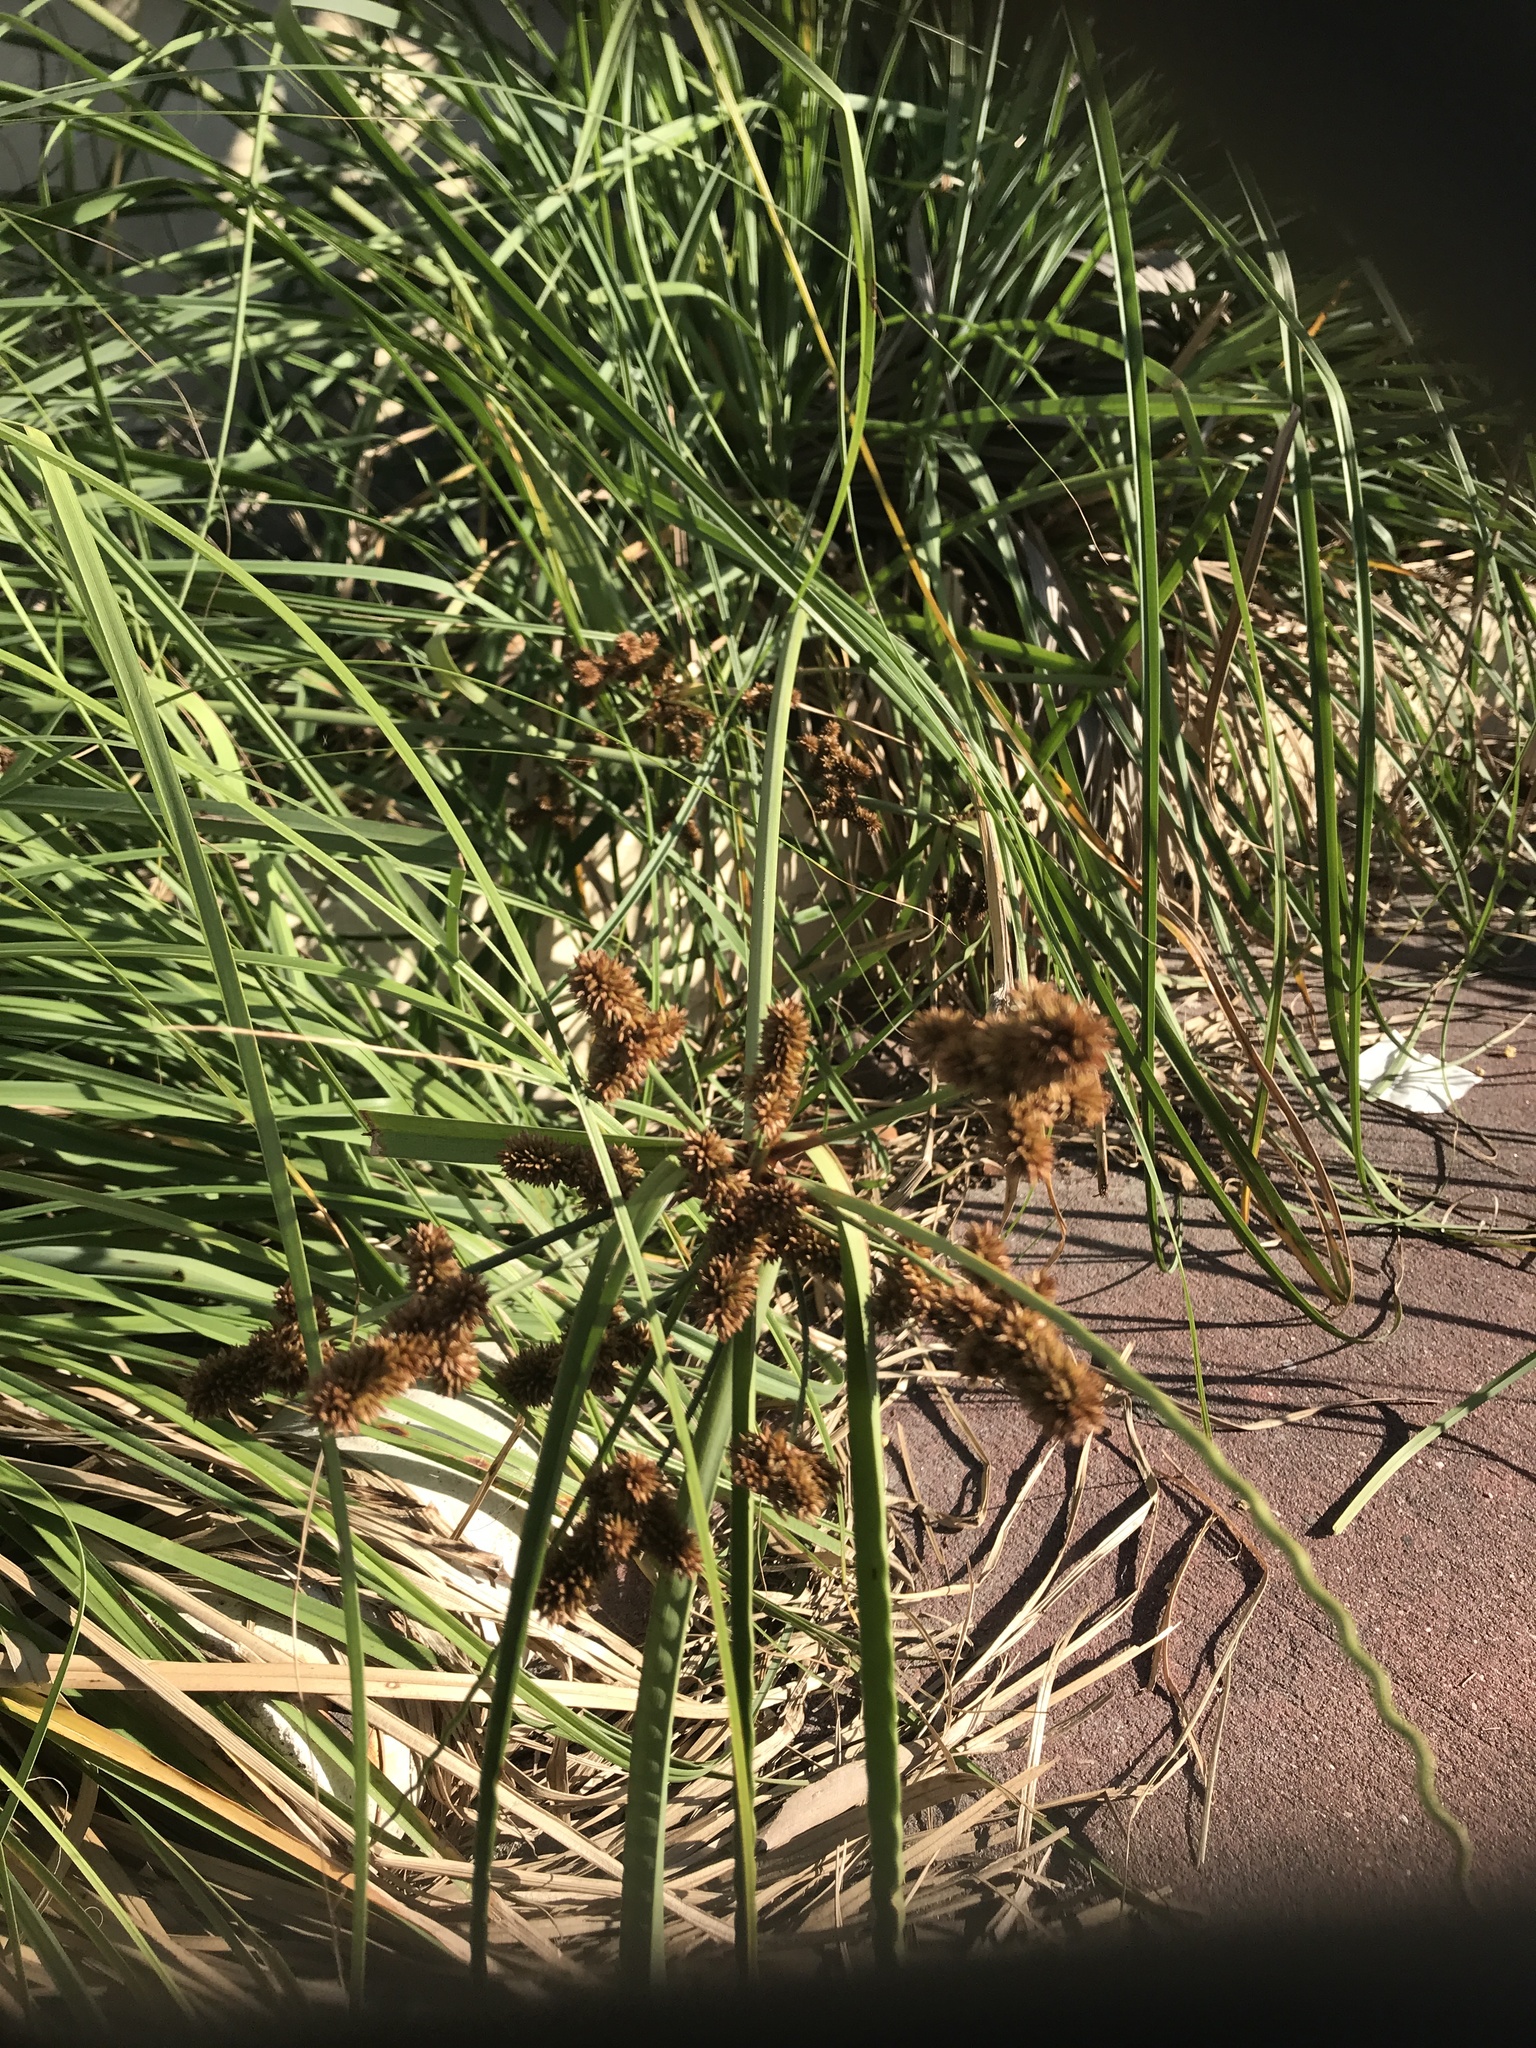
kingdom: Plantae
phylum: Tracheophyta
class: Liliopsida
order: Poales
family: Cyperaceae
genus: Cyperus
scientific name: Cyperus ligularis
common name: Swamp flat sedge
